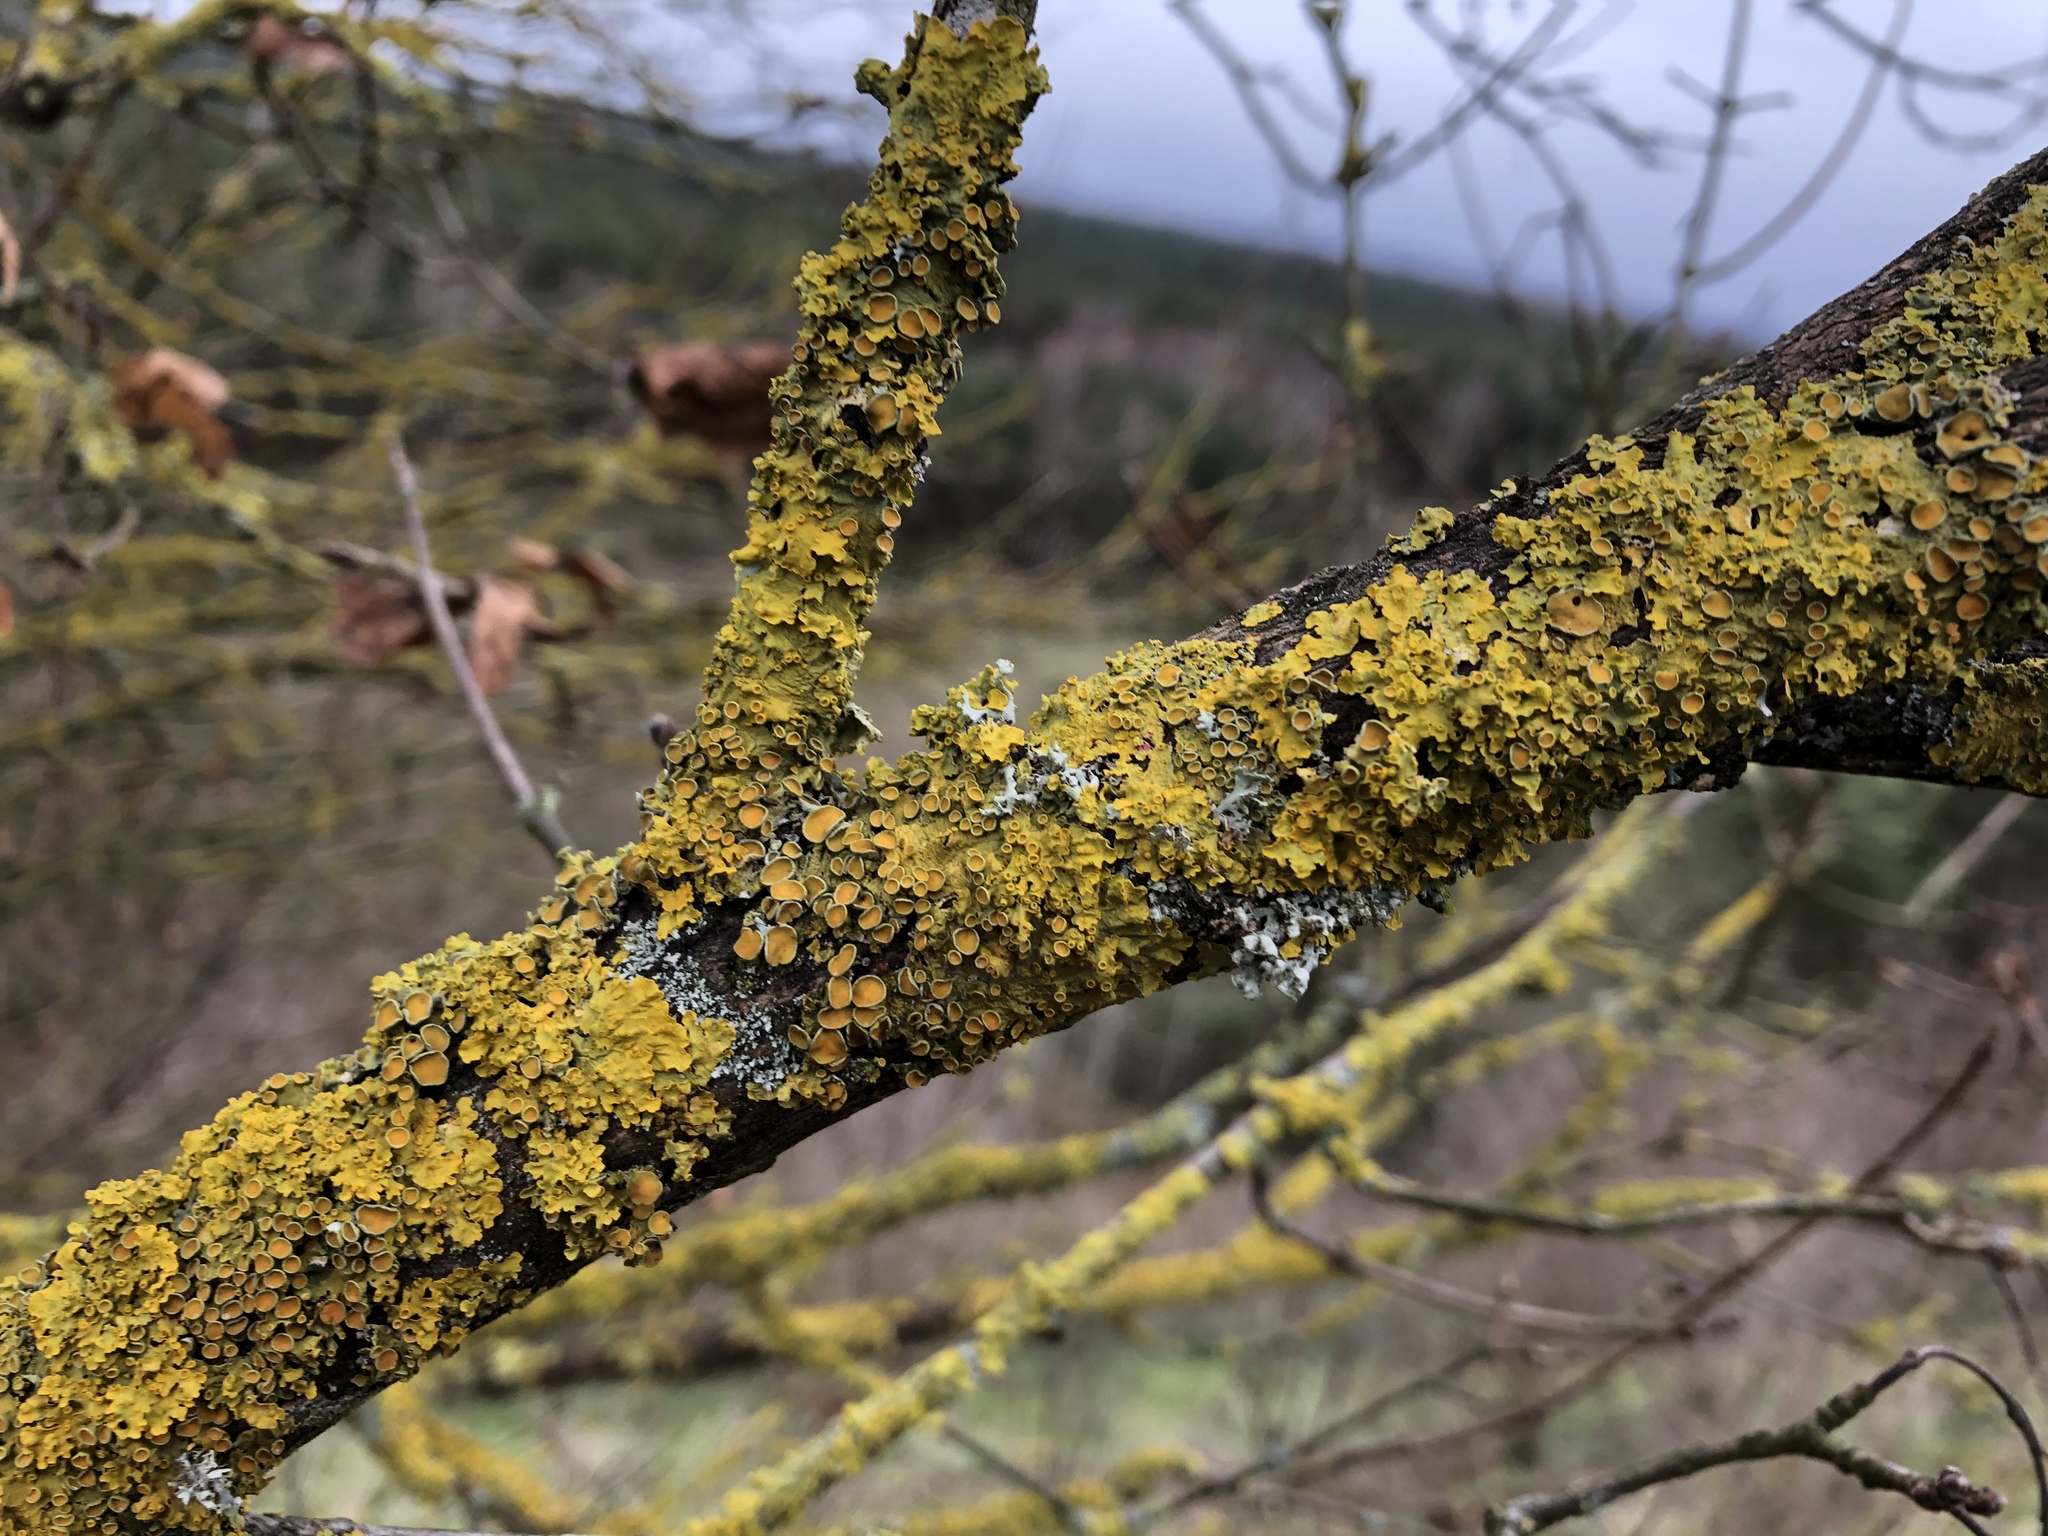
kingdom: Fungi
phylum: Ascomycota
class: Lecanoromycetes
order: Teloschistales
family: Teloschistaceae
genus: Xanthoria
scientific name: Xanthoria parietina
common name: Common orange lichen
